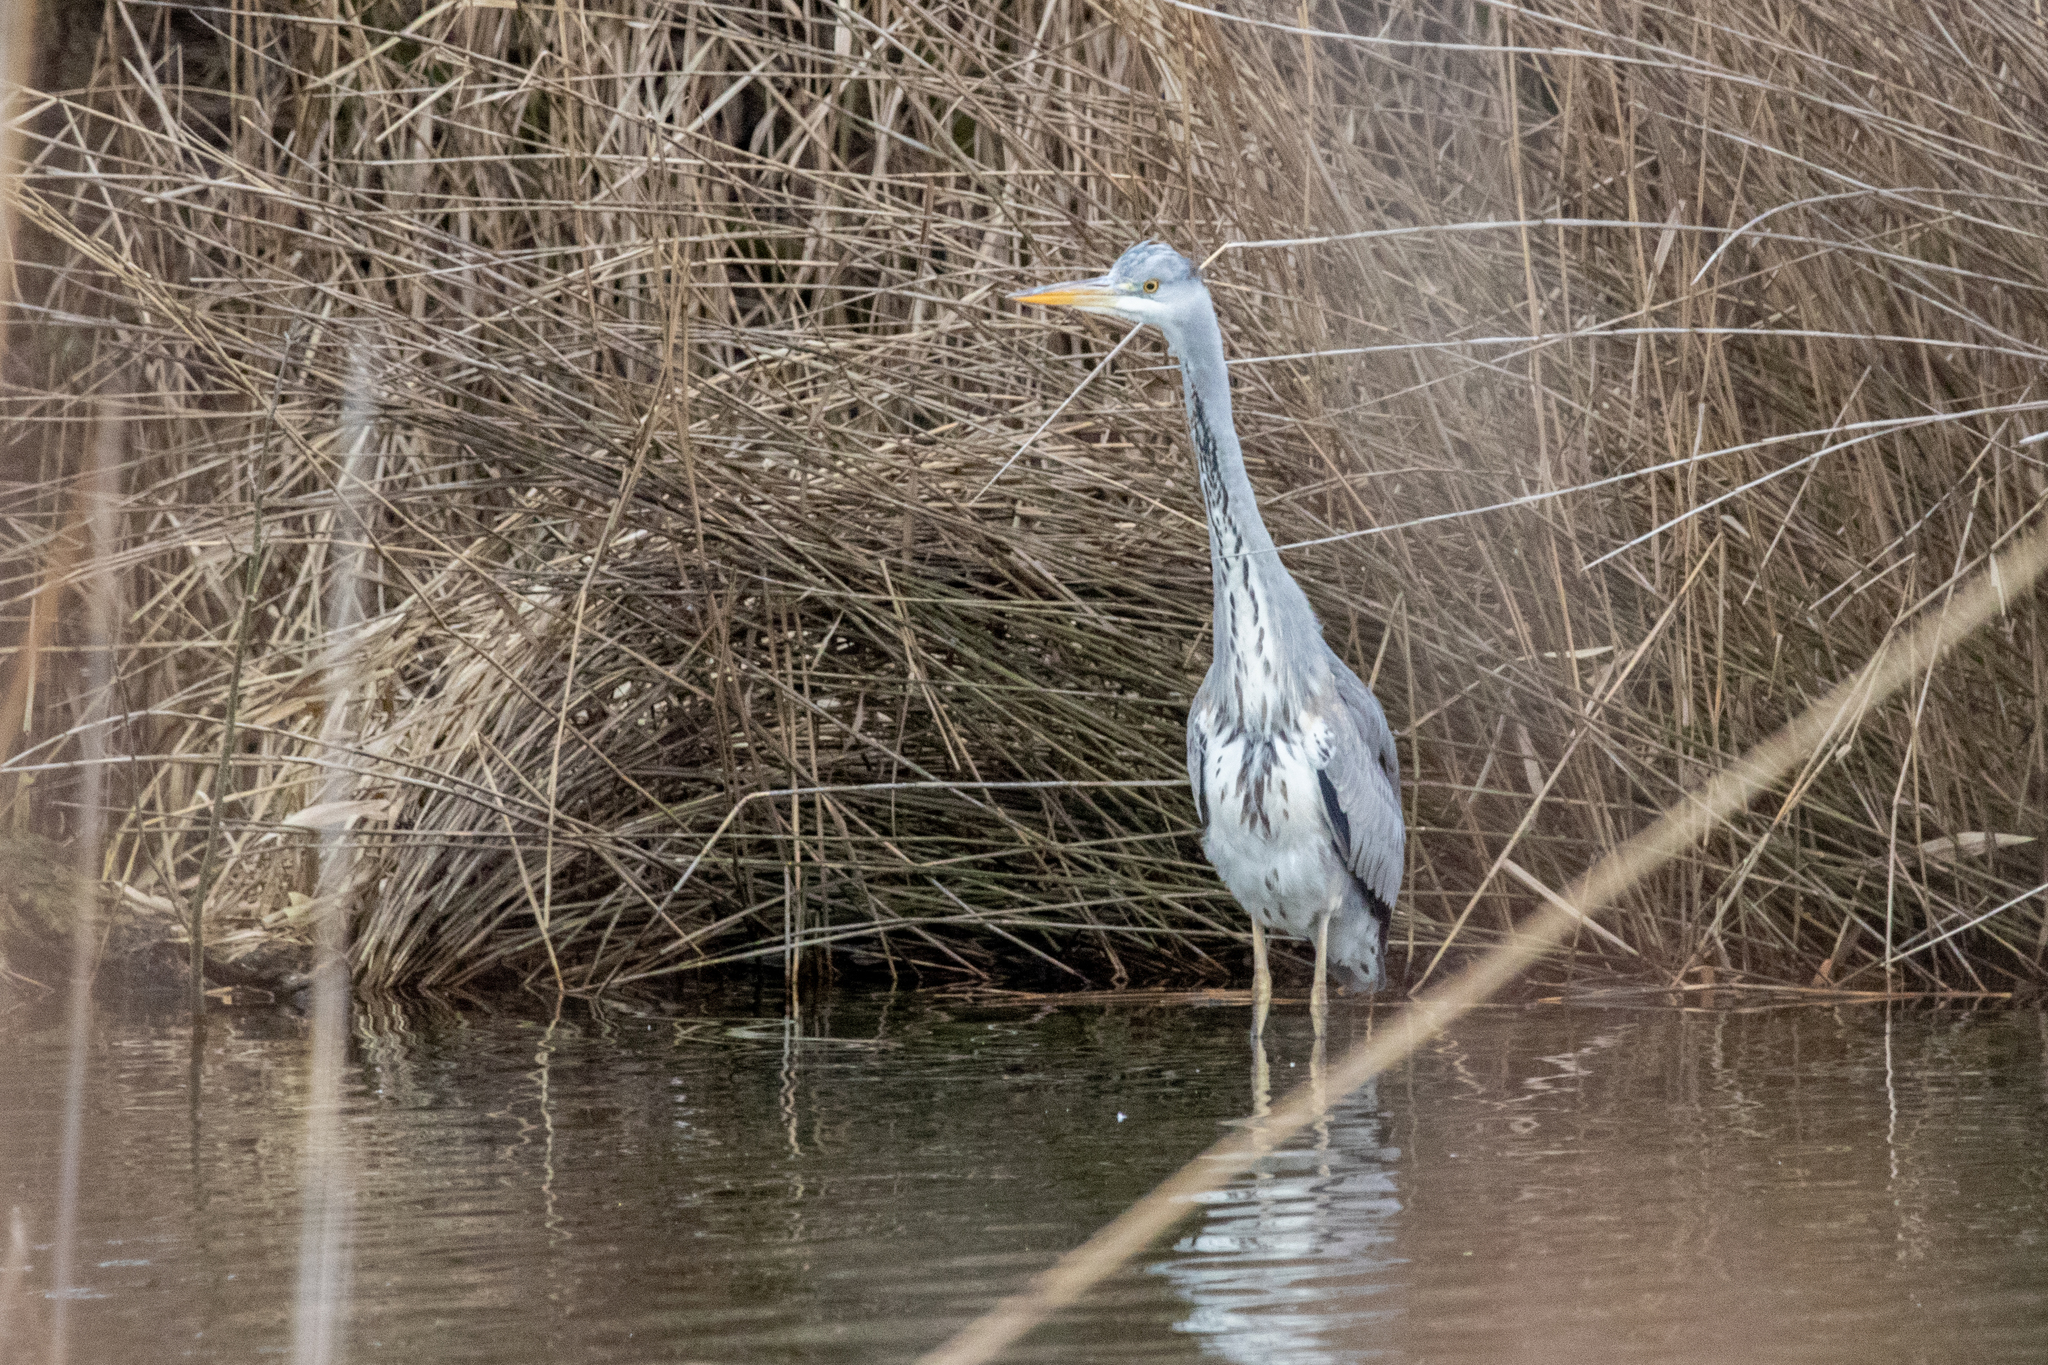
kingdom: Animalia
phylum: Chordata
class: Aves
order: Pelecaniformes
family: Ardeidae
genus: Ardea
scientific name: Ardea cinerea
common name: Grey heron
